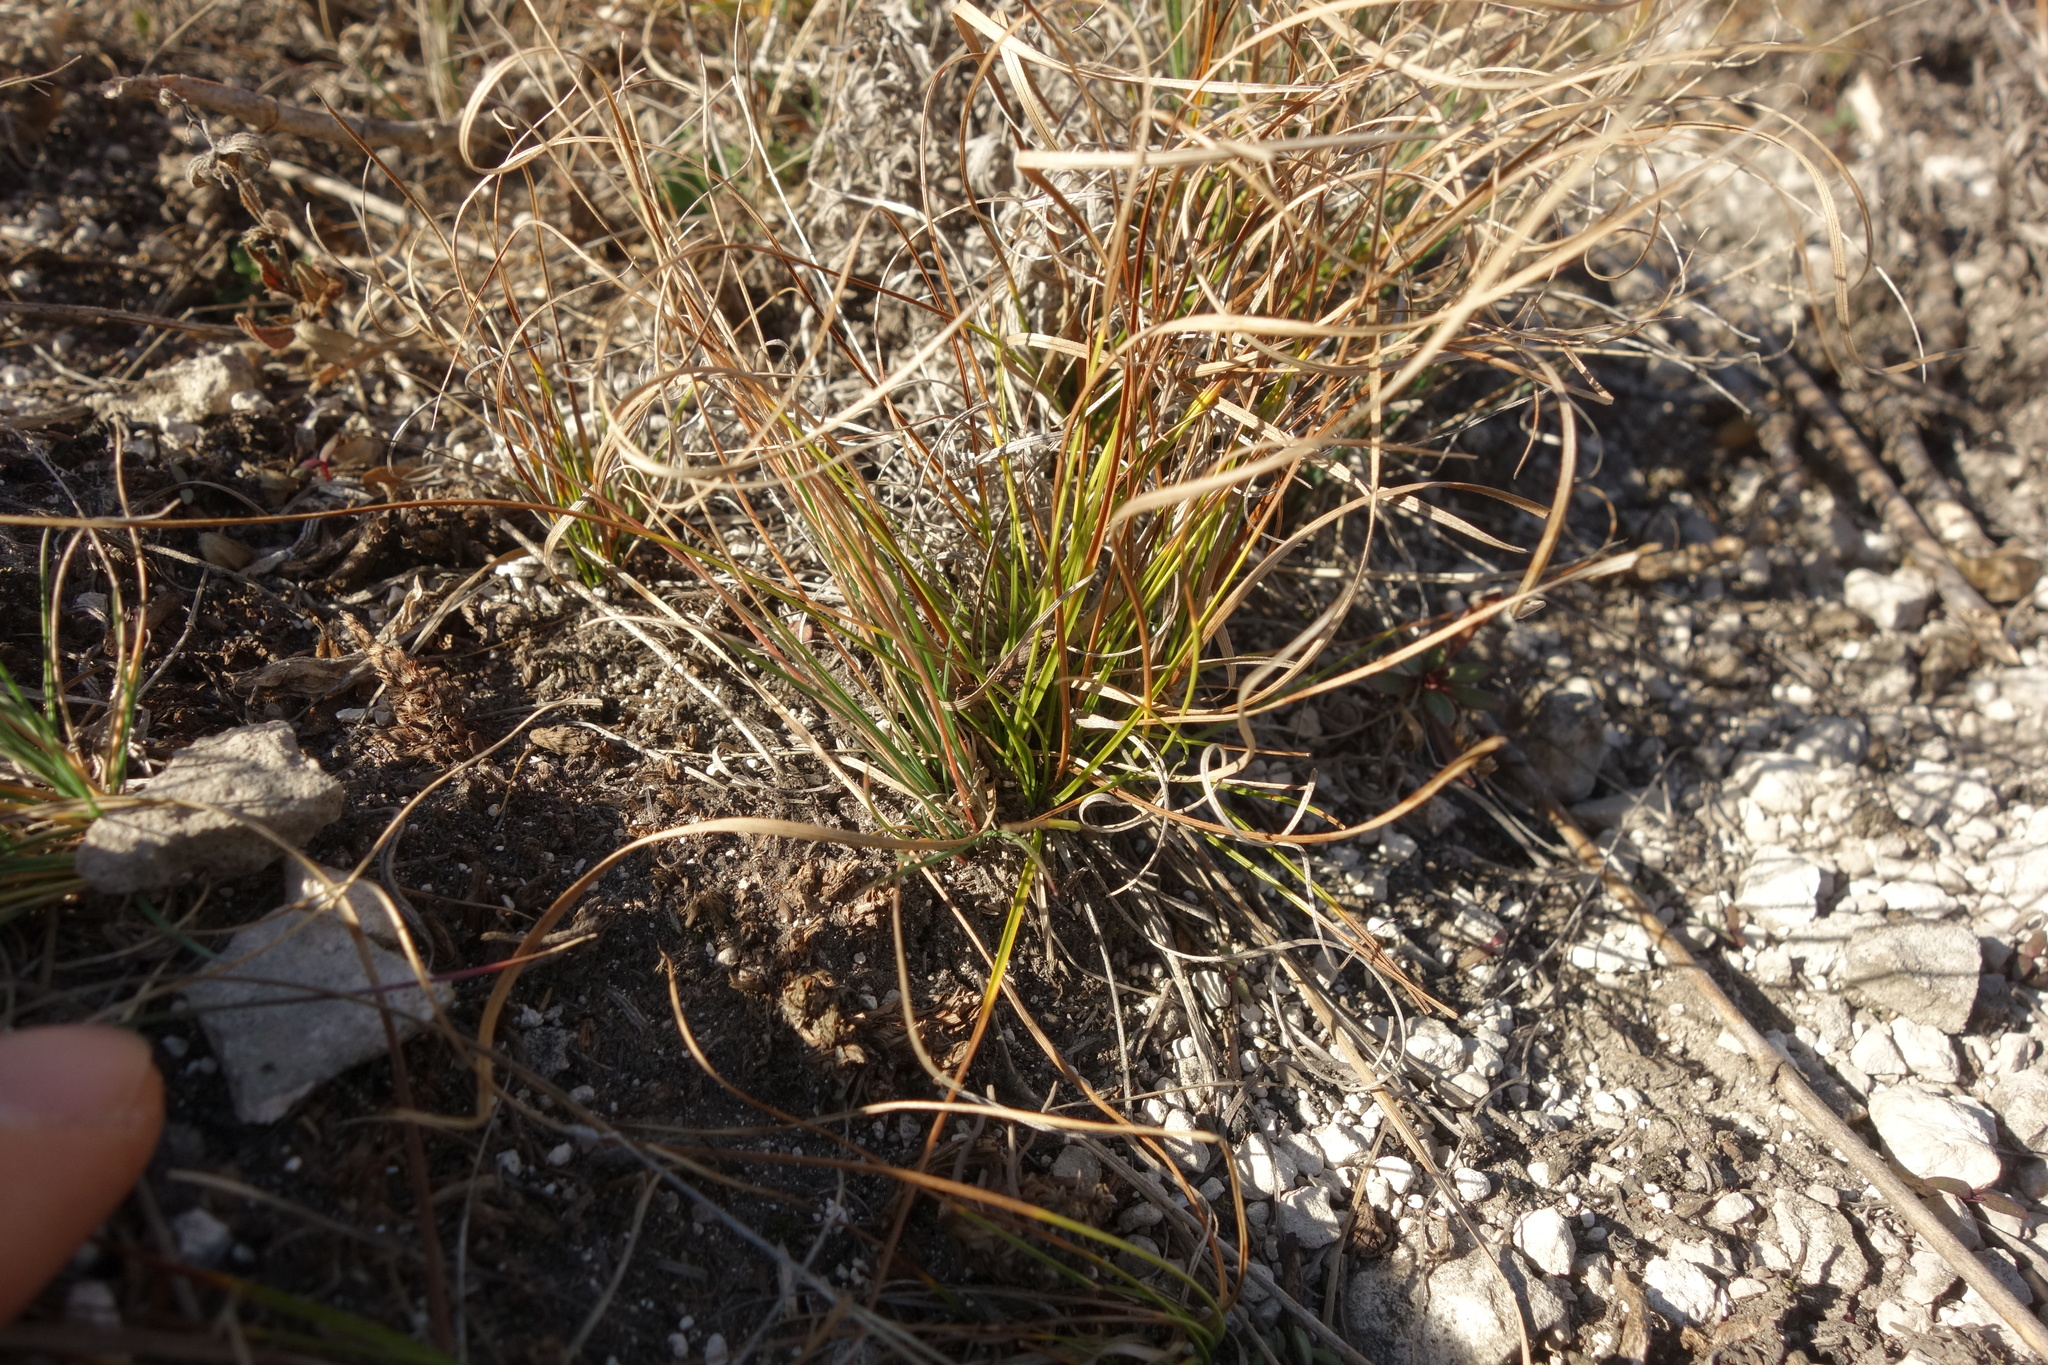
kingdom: Plantae
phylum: Tracheophyta
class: Liliopsida
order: Poales
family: Cyperaceae
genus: Carex
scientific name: Carex humilis
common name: Dwarf sedge
